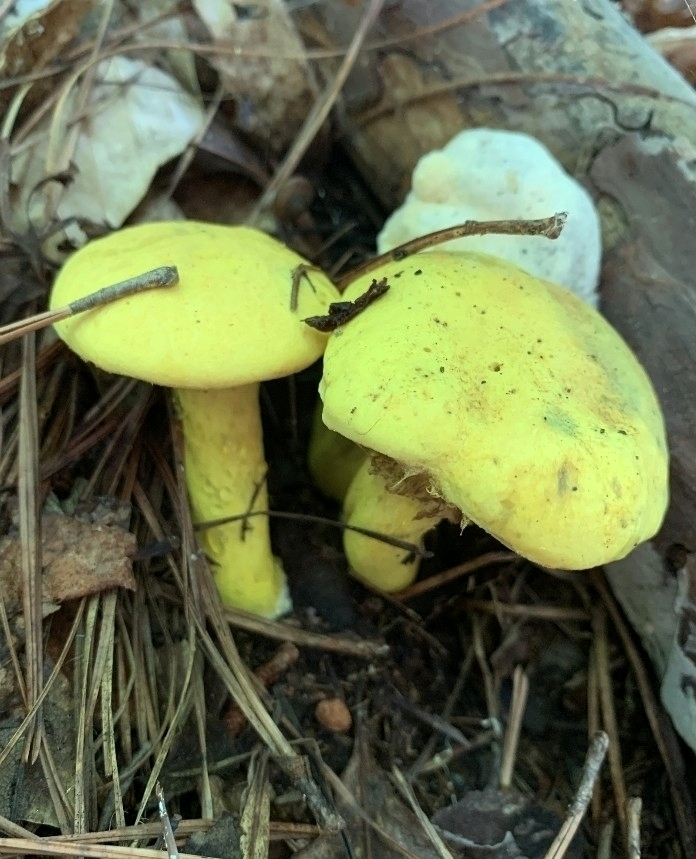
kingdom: Fungi
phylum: Basidiomycota
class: Agaricomycetes
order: Boletales
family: Boletaceae
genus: Pulveroboletus
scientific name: Pulveroboletus ravenelii
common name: Powdery sulfur bolete
